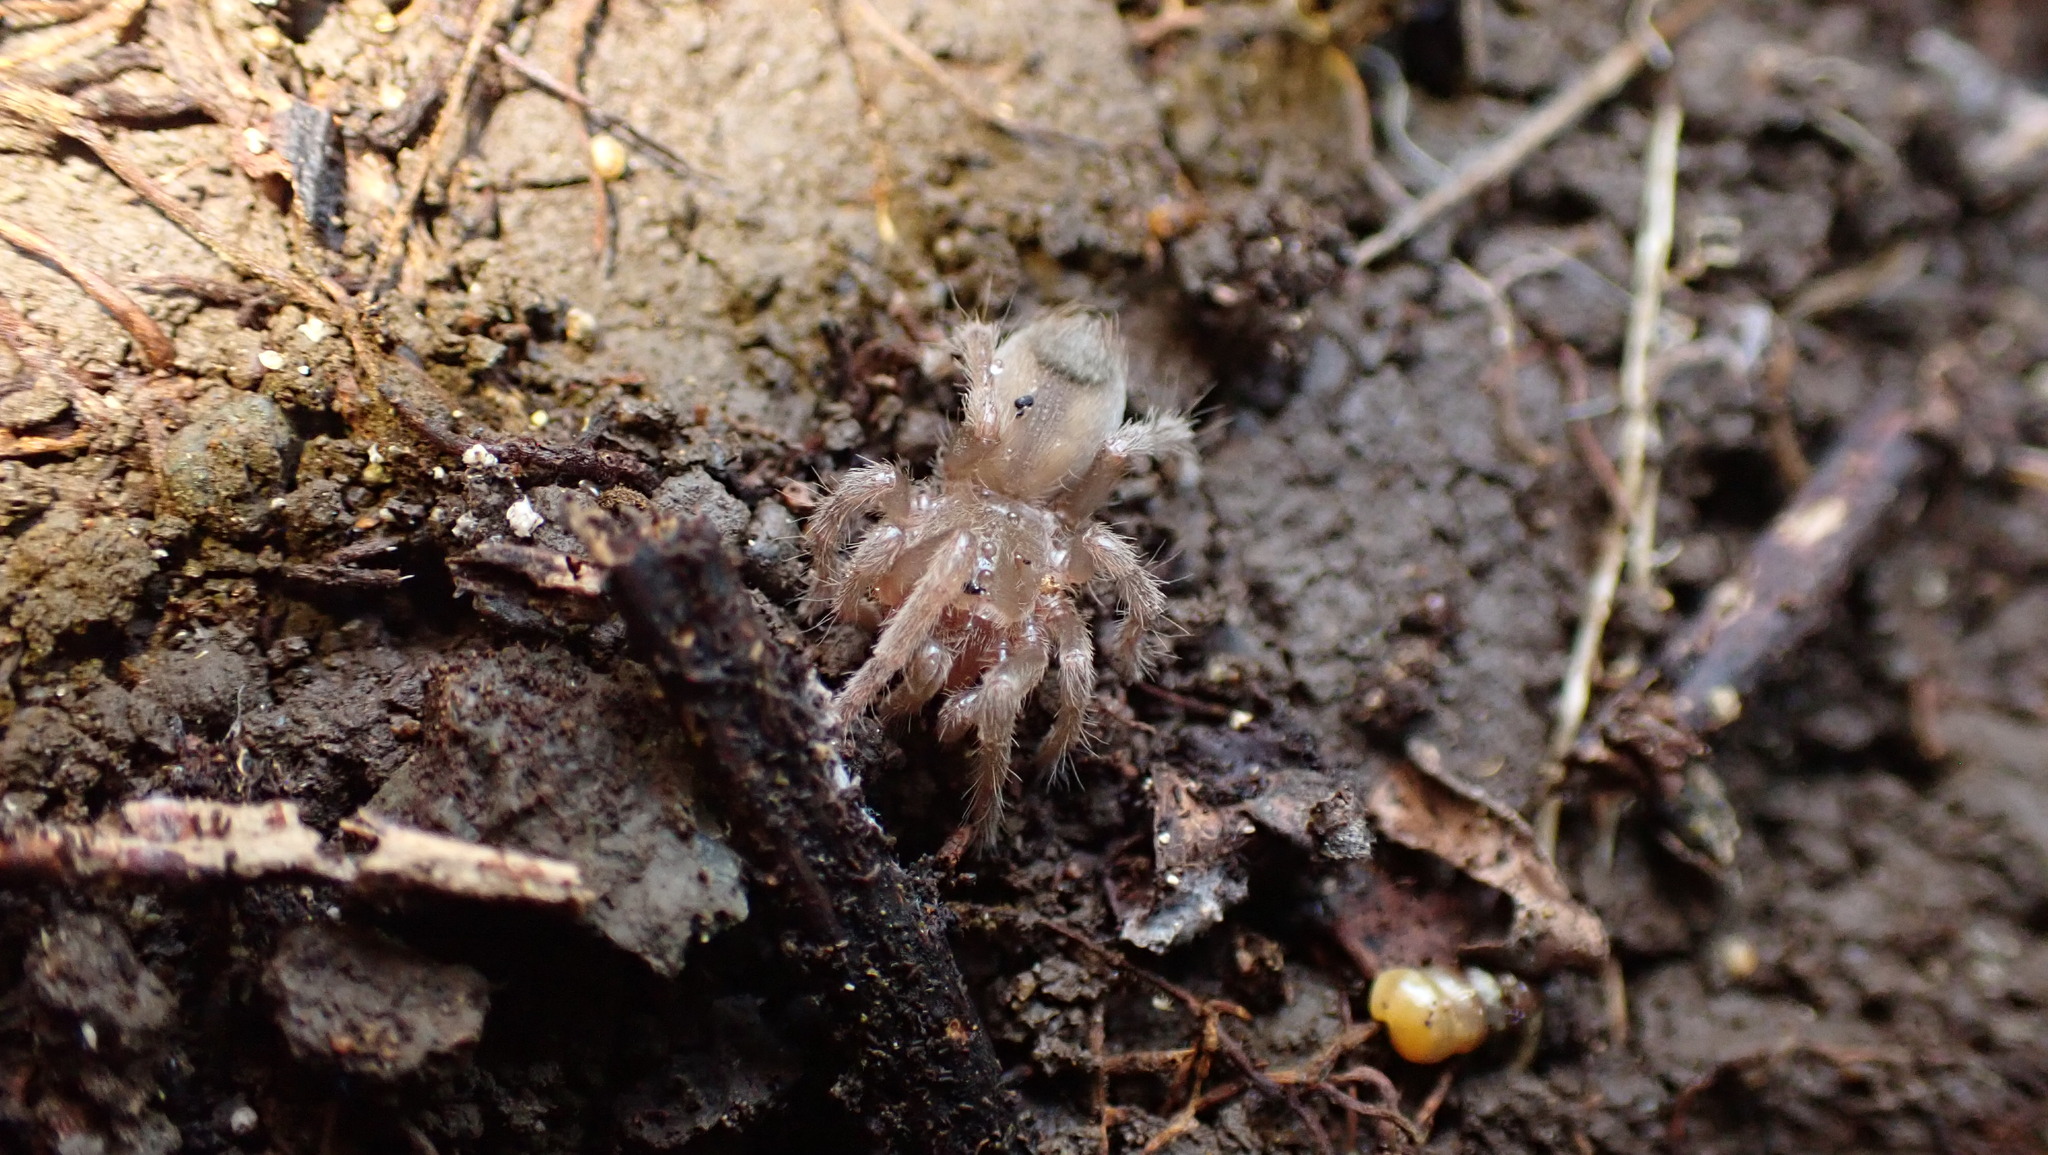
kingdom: Animalia
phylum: Arthropoda
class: Arachnida
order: Araneae
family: Theraphosidae
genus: Cyrtopholis
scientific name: Cyrtopholis portoricae
